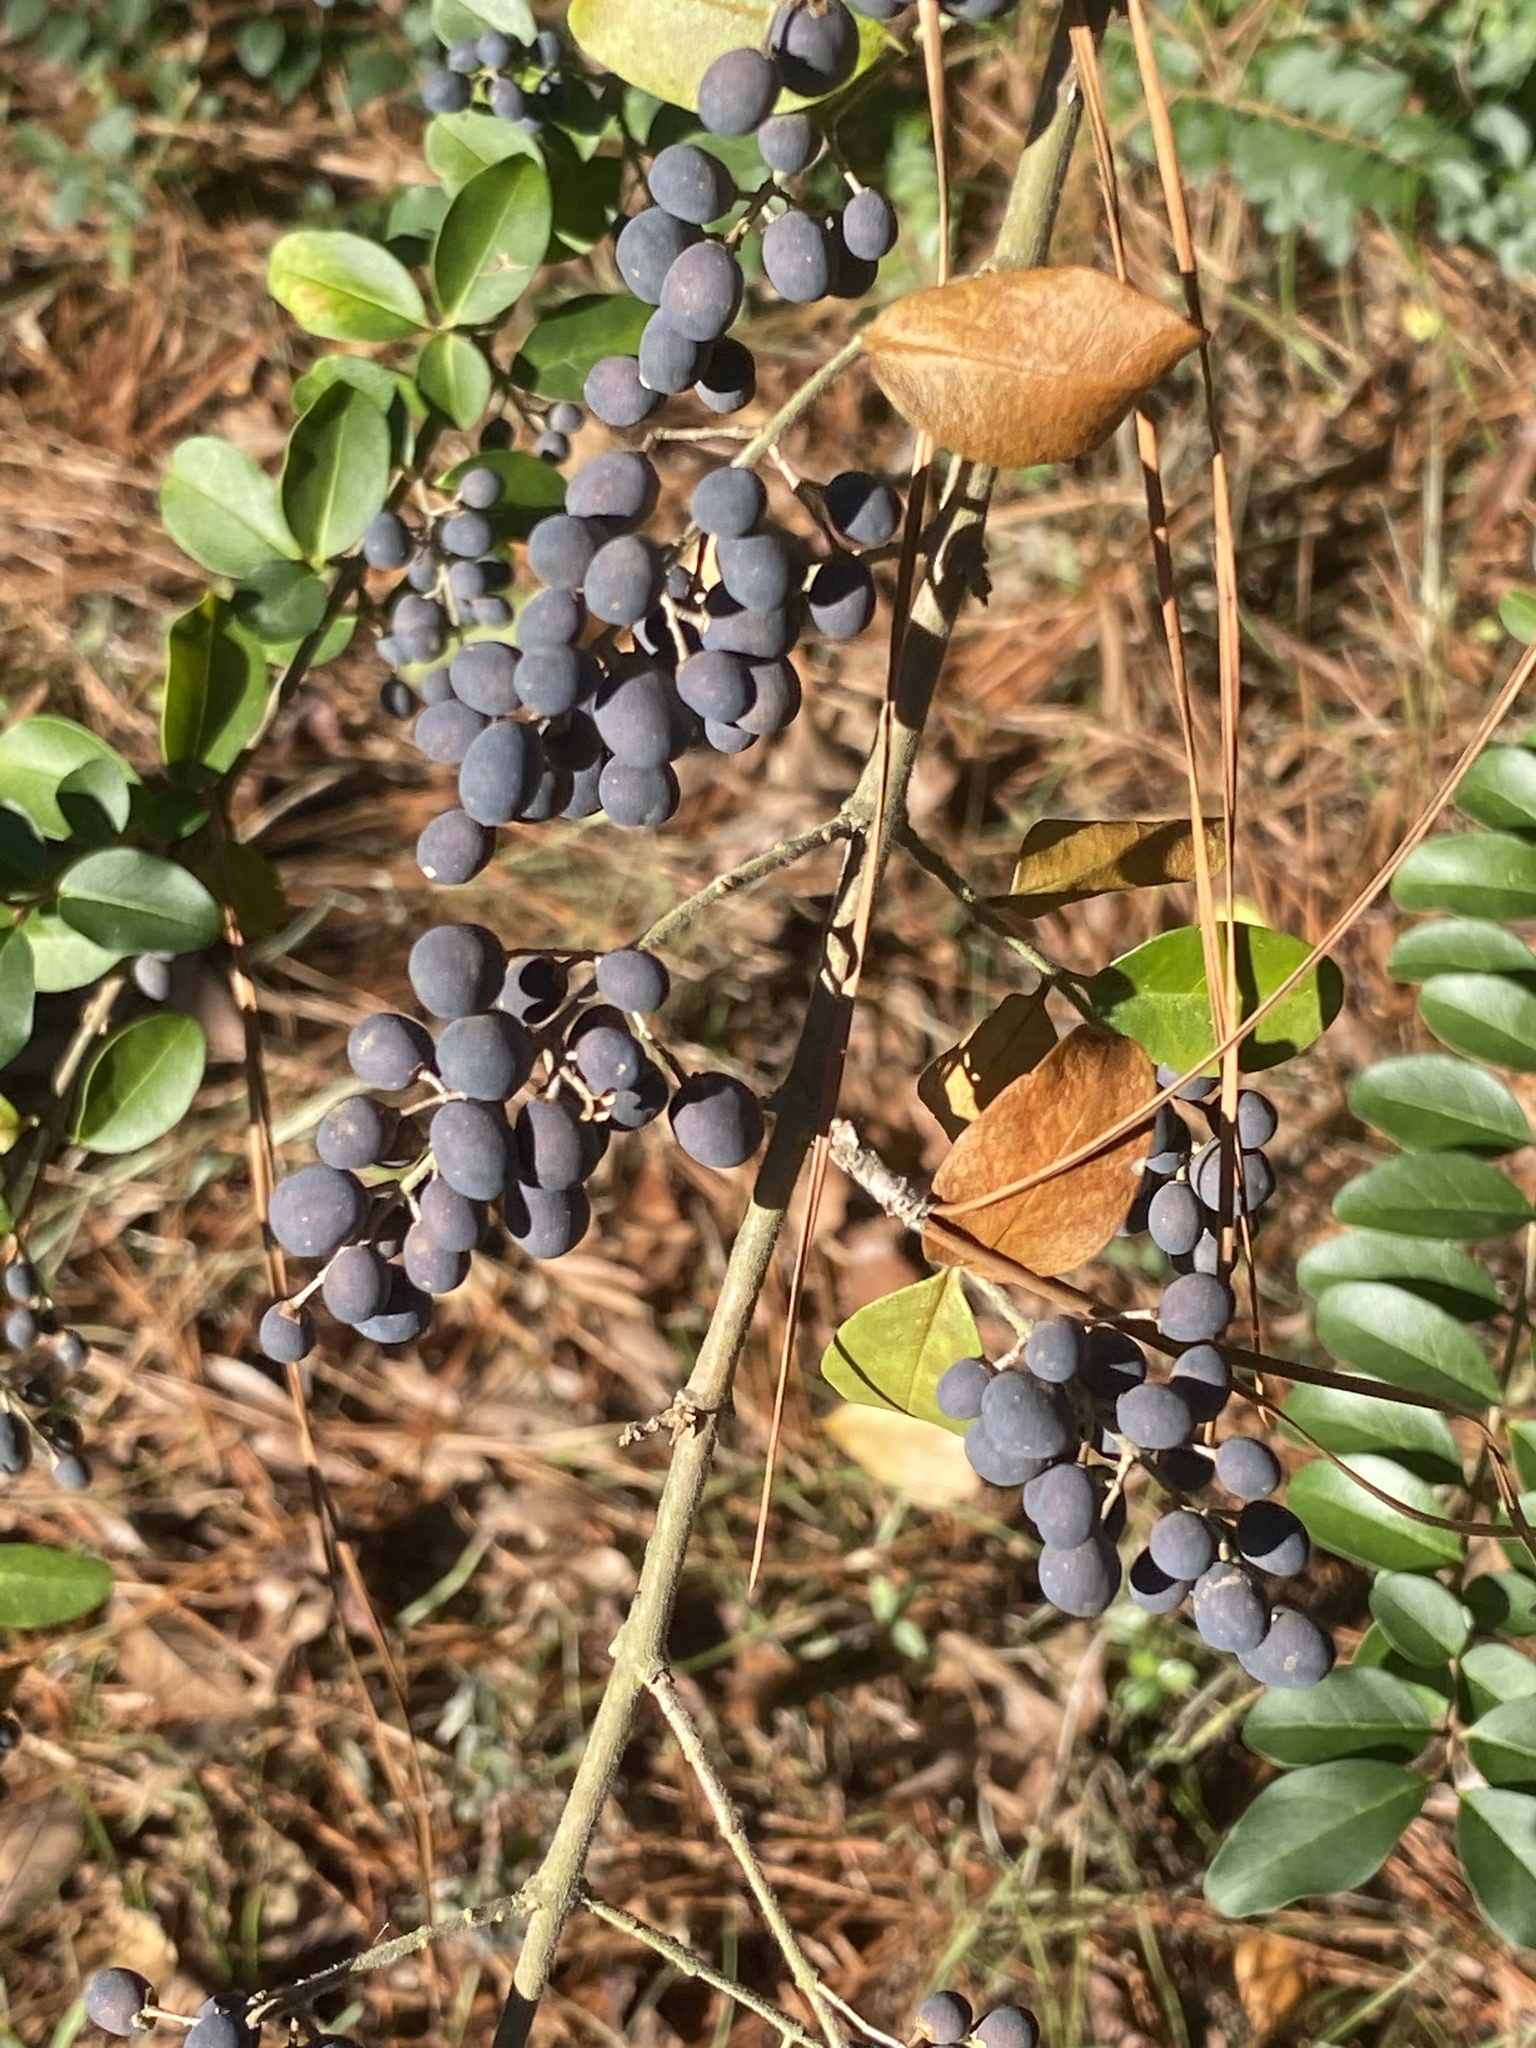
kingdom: Plantae
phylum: Tracheophyta
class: Magnoliopsida
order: Lamiales
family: Oleaceae
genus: Ligustrum
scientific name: Ligustrum sinense
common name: Chinese privet
